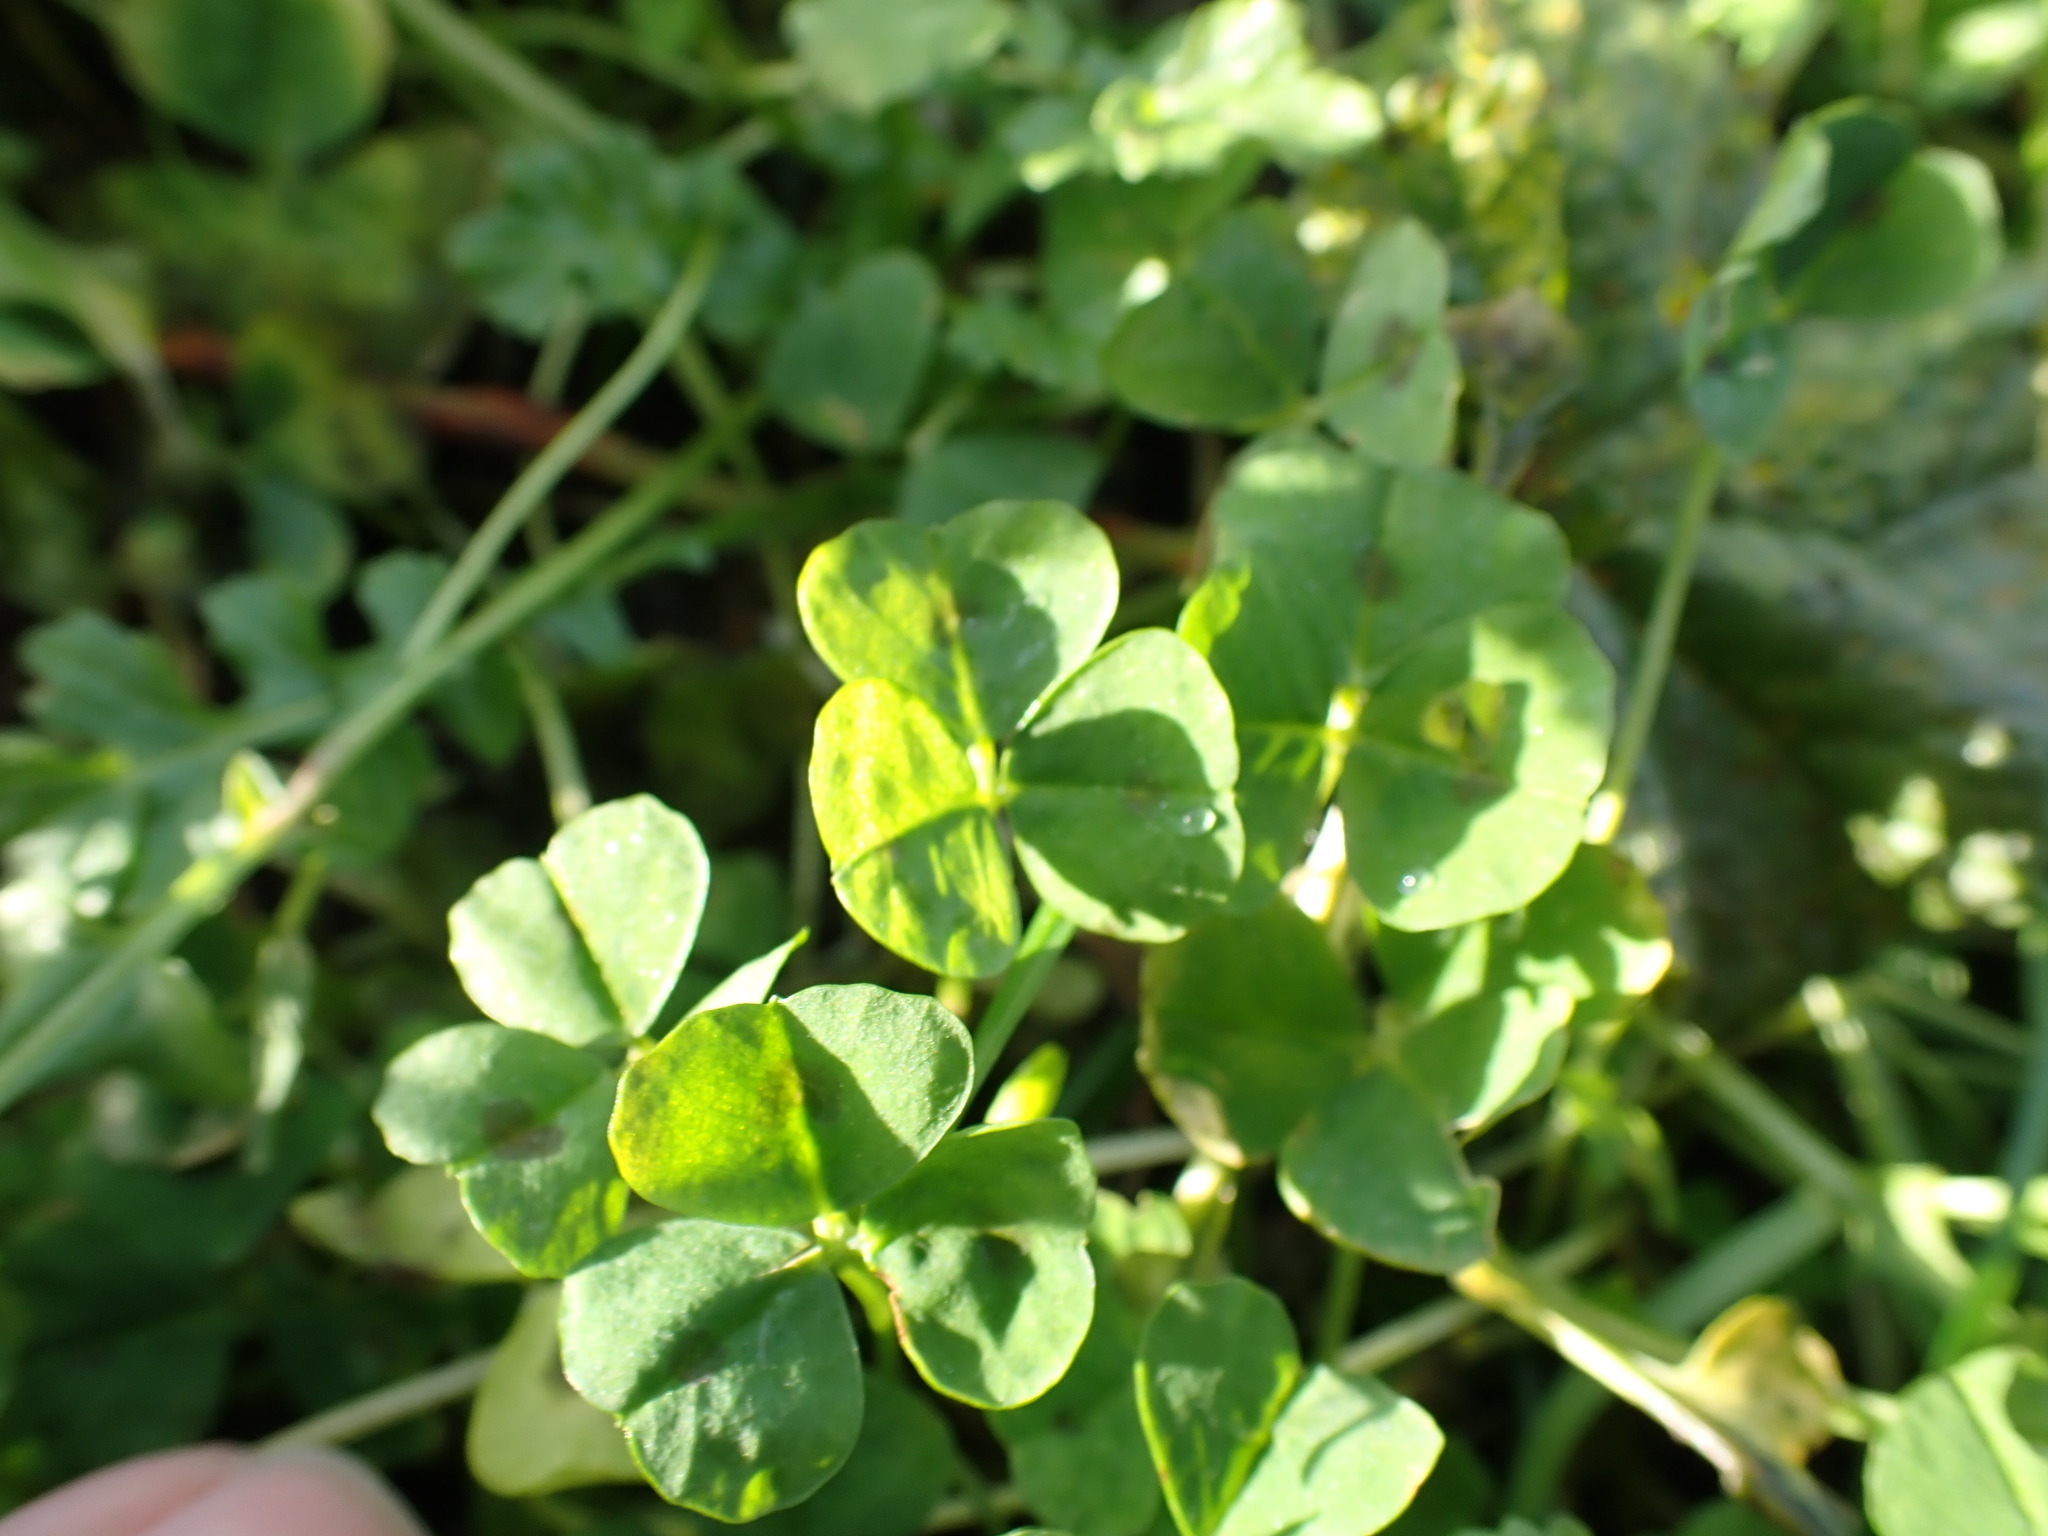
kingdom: Plantae
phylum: Tracheophyta
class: Magnoliopsida
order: Fabales
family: Fabaceae
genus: Medicago
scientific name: Medicago arabica
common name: Spotted medick
